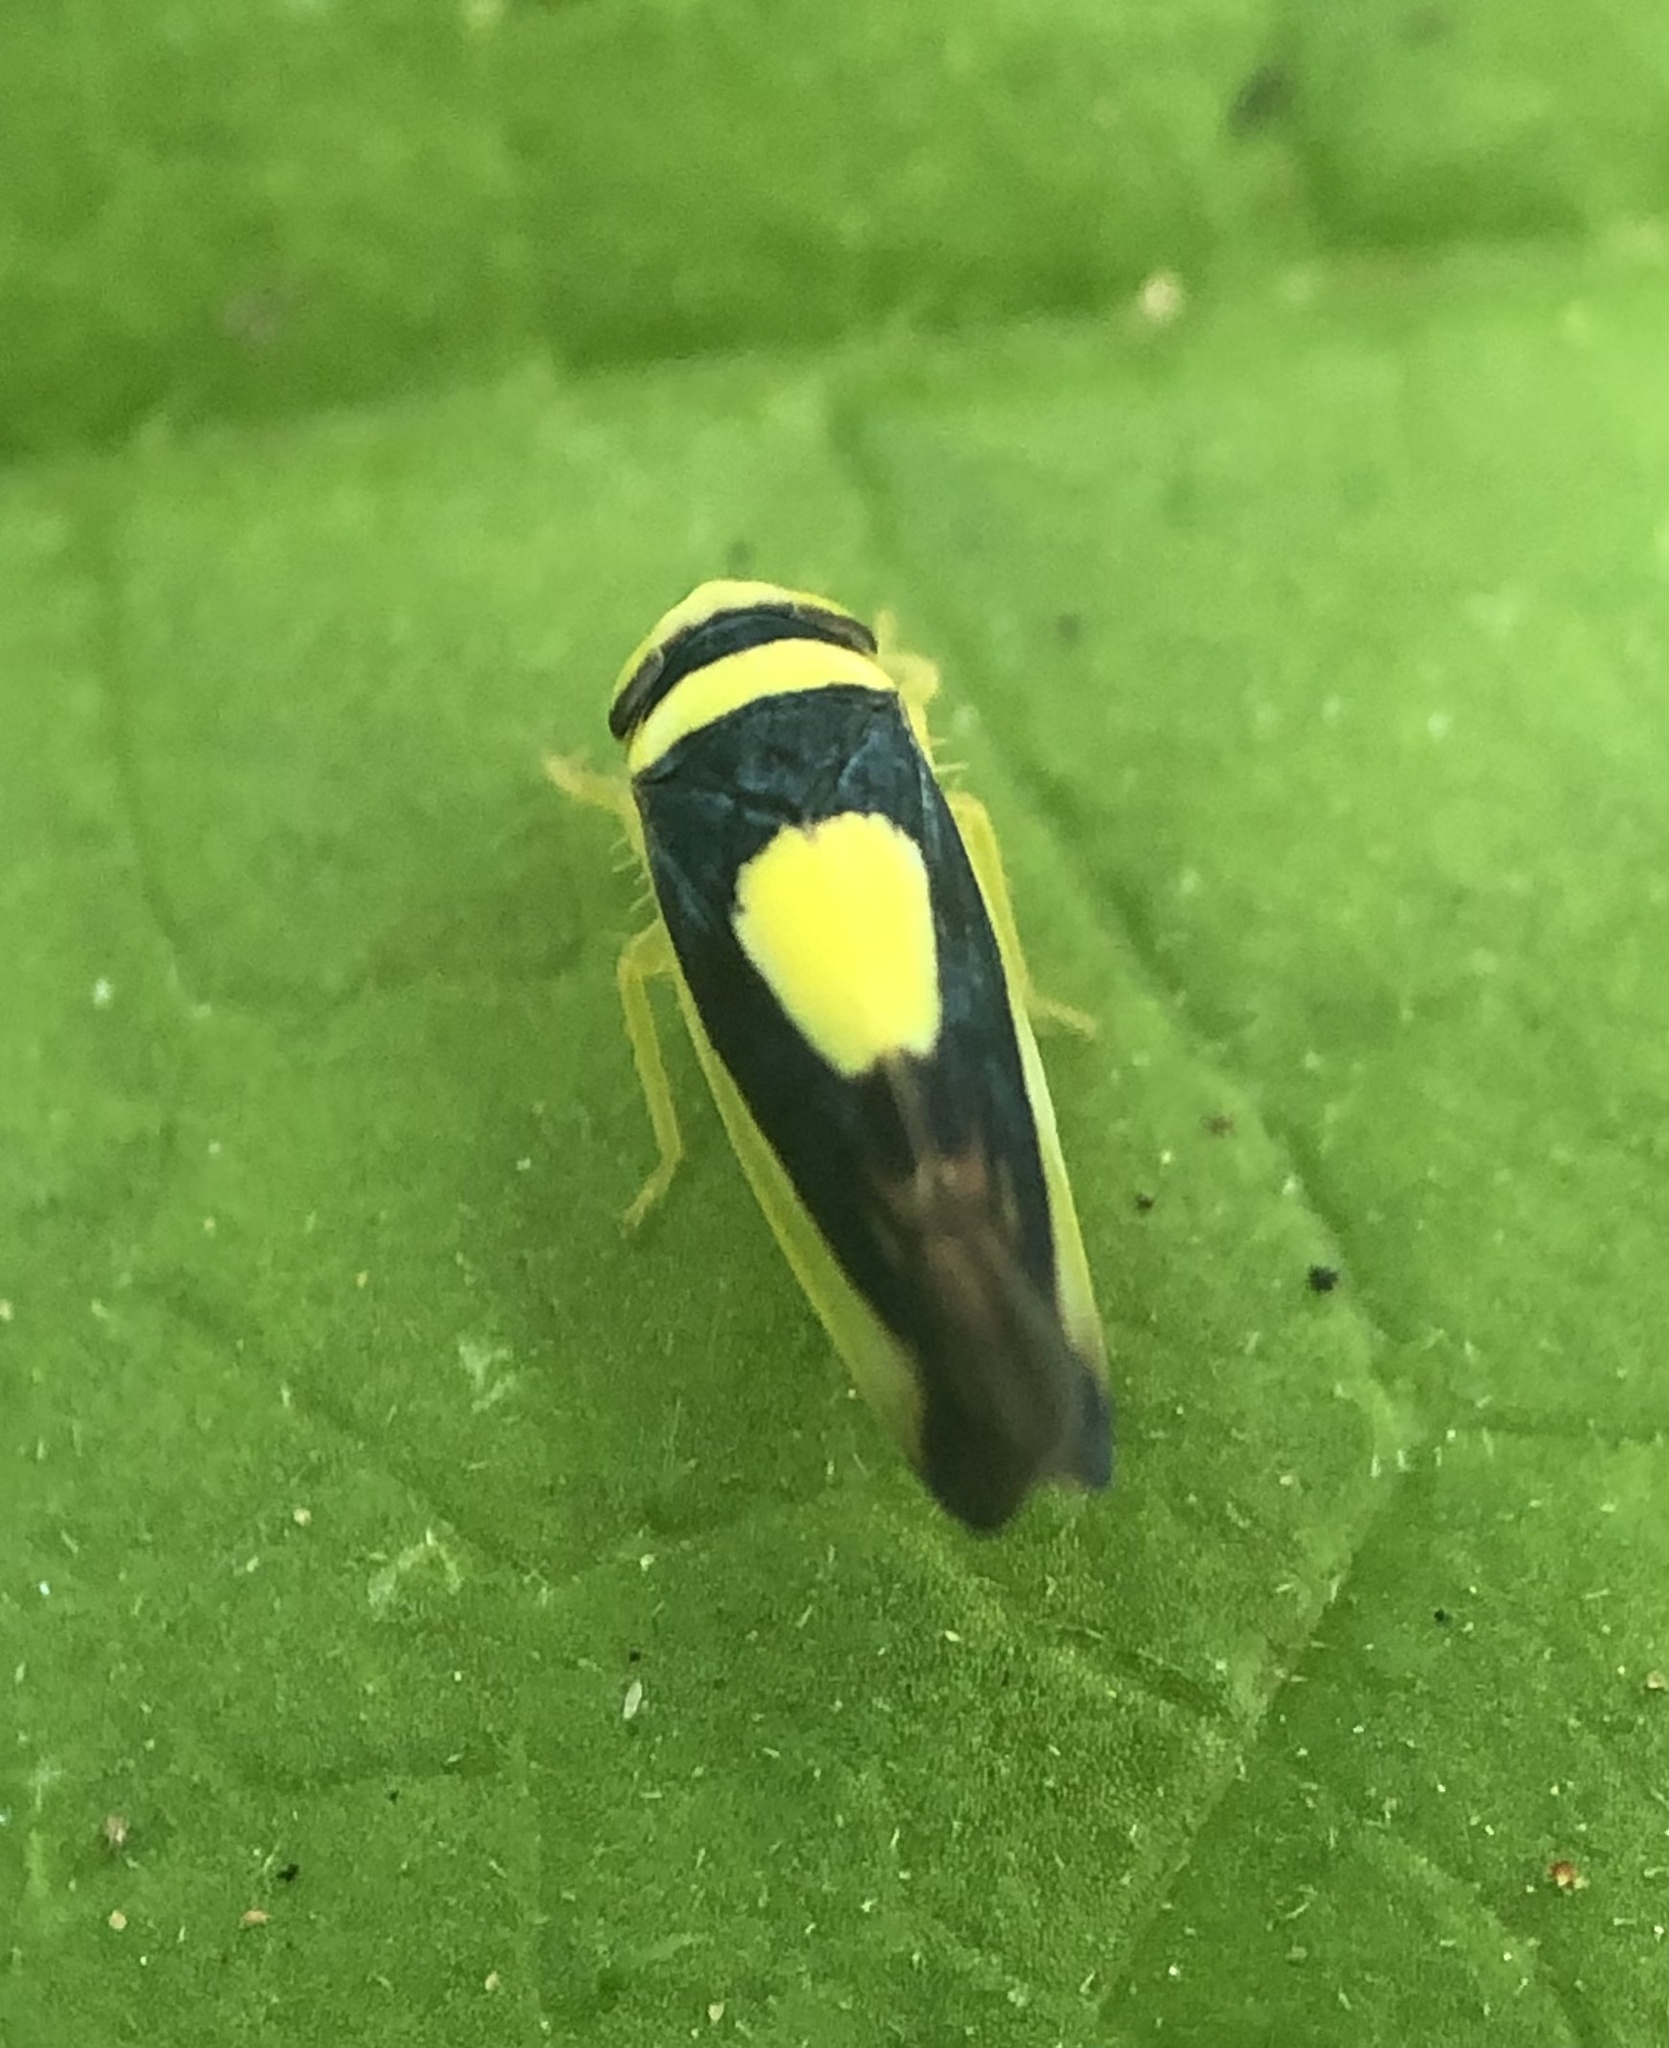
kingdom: Animalia
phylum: Arthropoda
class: Insecta
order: Hemiptera
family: Cicadellidae
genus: Colladonus
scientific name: Colladonus clitellarius
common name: The saddleback leafhopper
